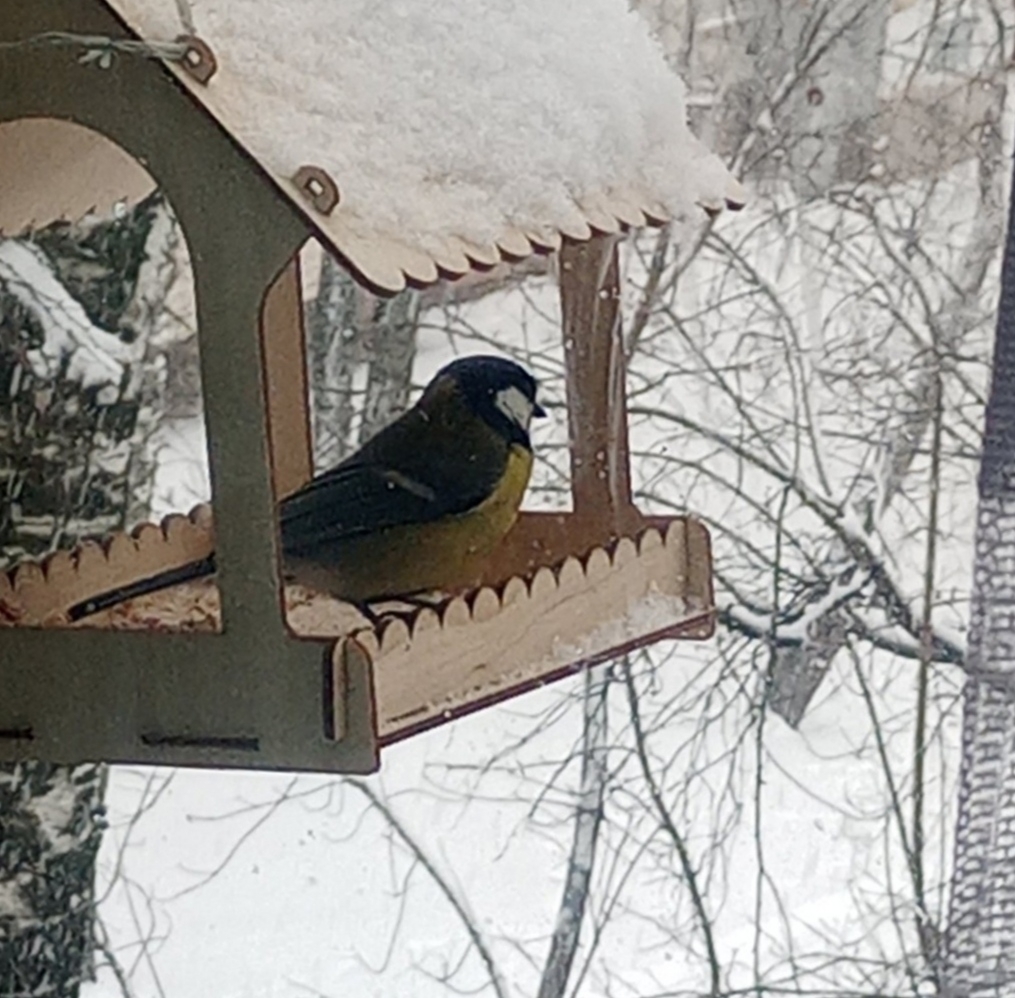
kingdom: Animalia
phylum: Chordata
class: Aves
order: Passeriformes
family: Paridae
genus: Parus
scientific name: Parus major
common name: Great tit
